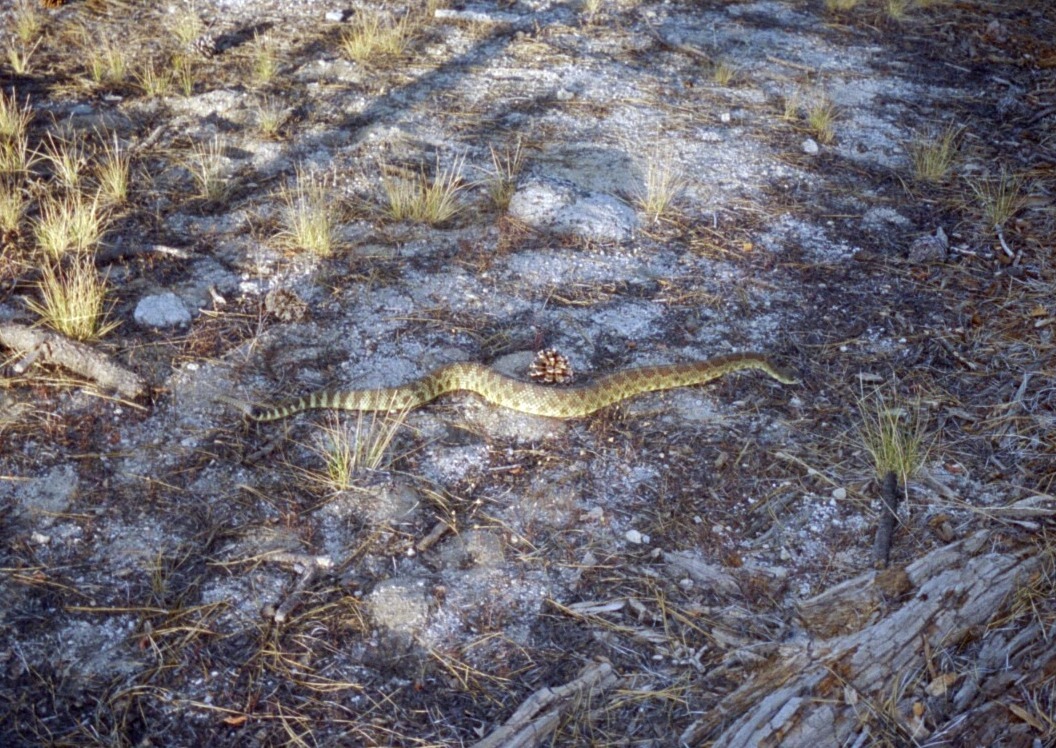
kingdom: Animalia
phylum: Chordata
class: Squamata
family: Viperidae
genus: Crotalus
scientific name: Crotalus oreganus
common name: Abyssus
